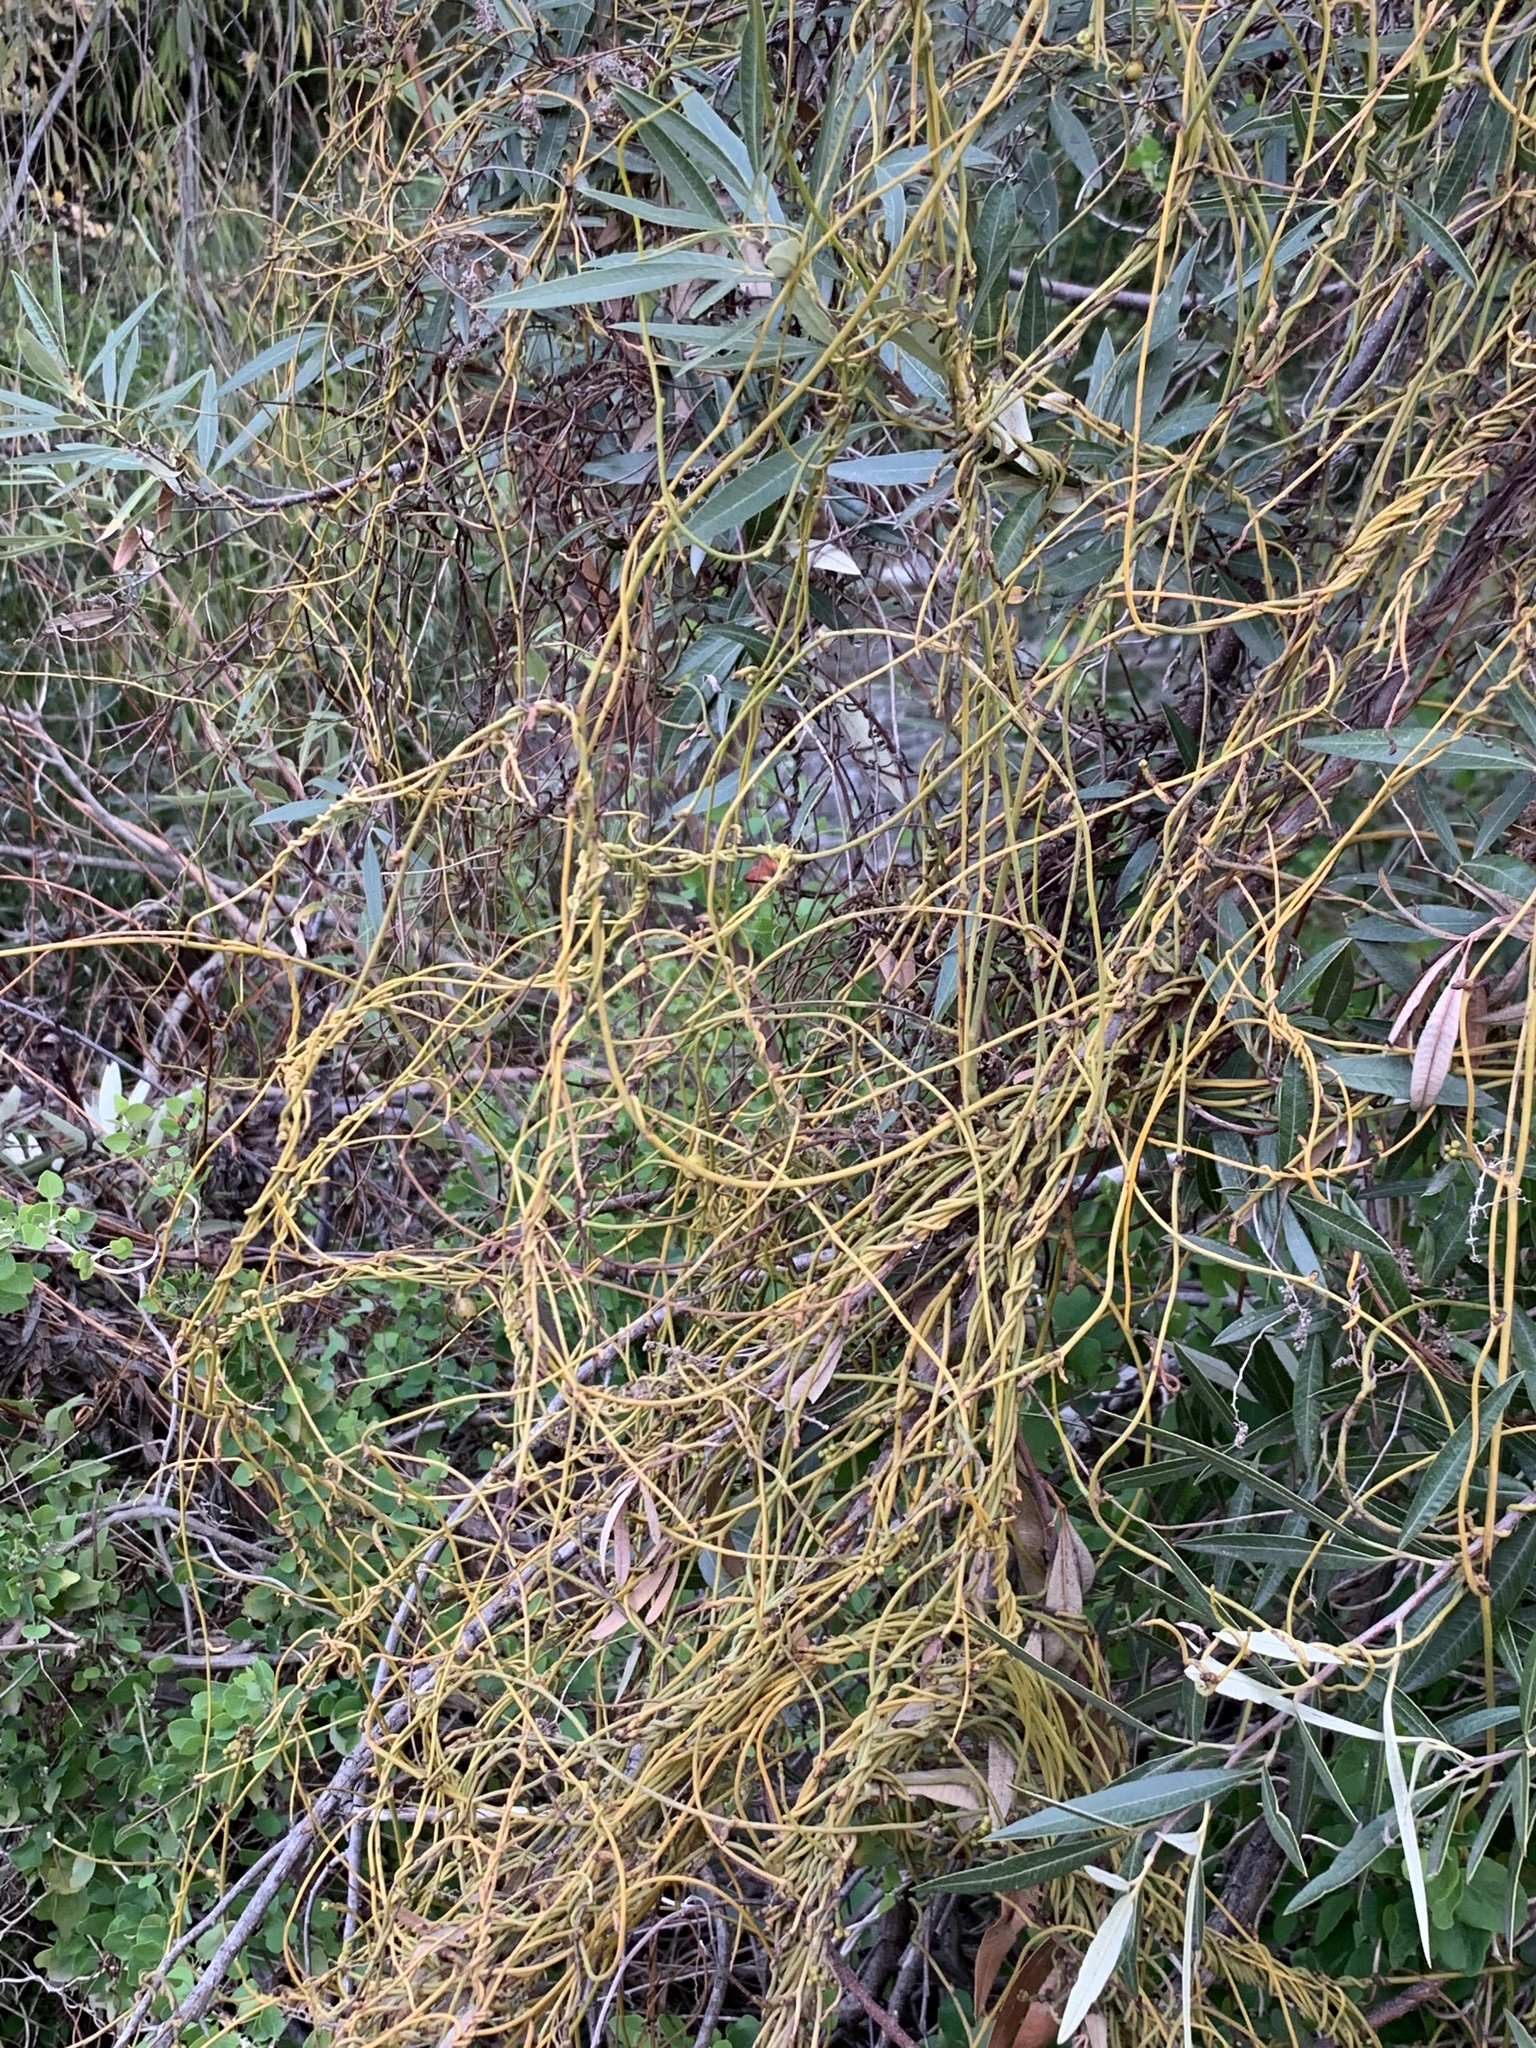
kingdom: Plantae
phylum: Tracheophyta
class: Magnoliopsida
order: Laurales
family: Lauraceae
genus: Cassytha
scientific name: Cassytha ciliolata
